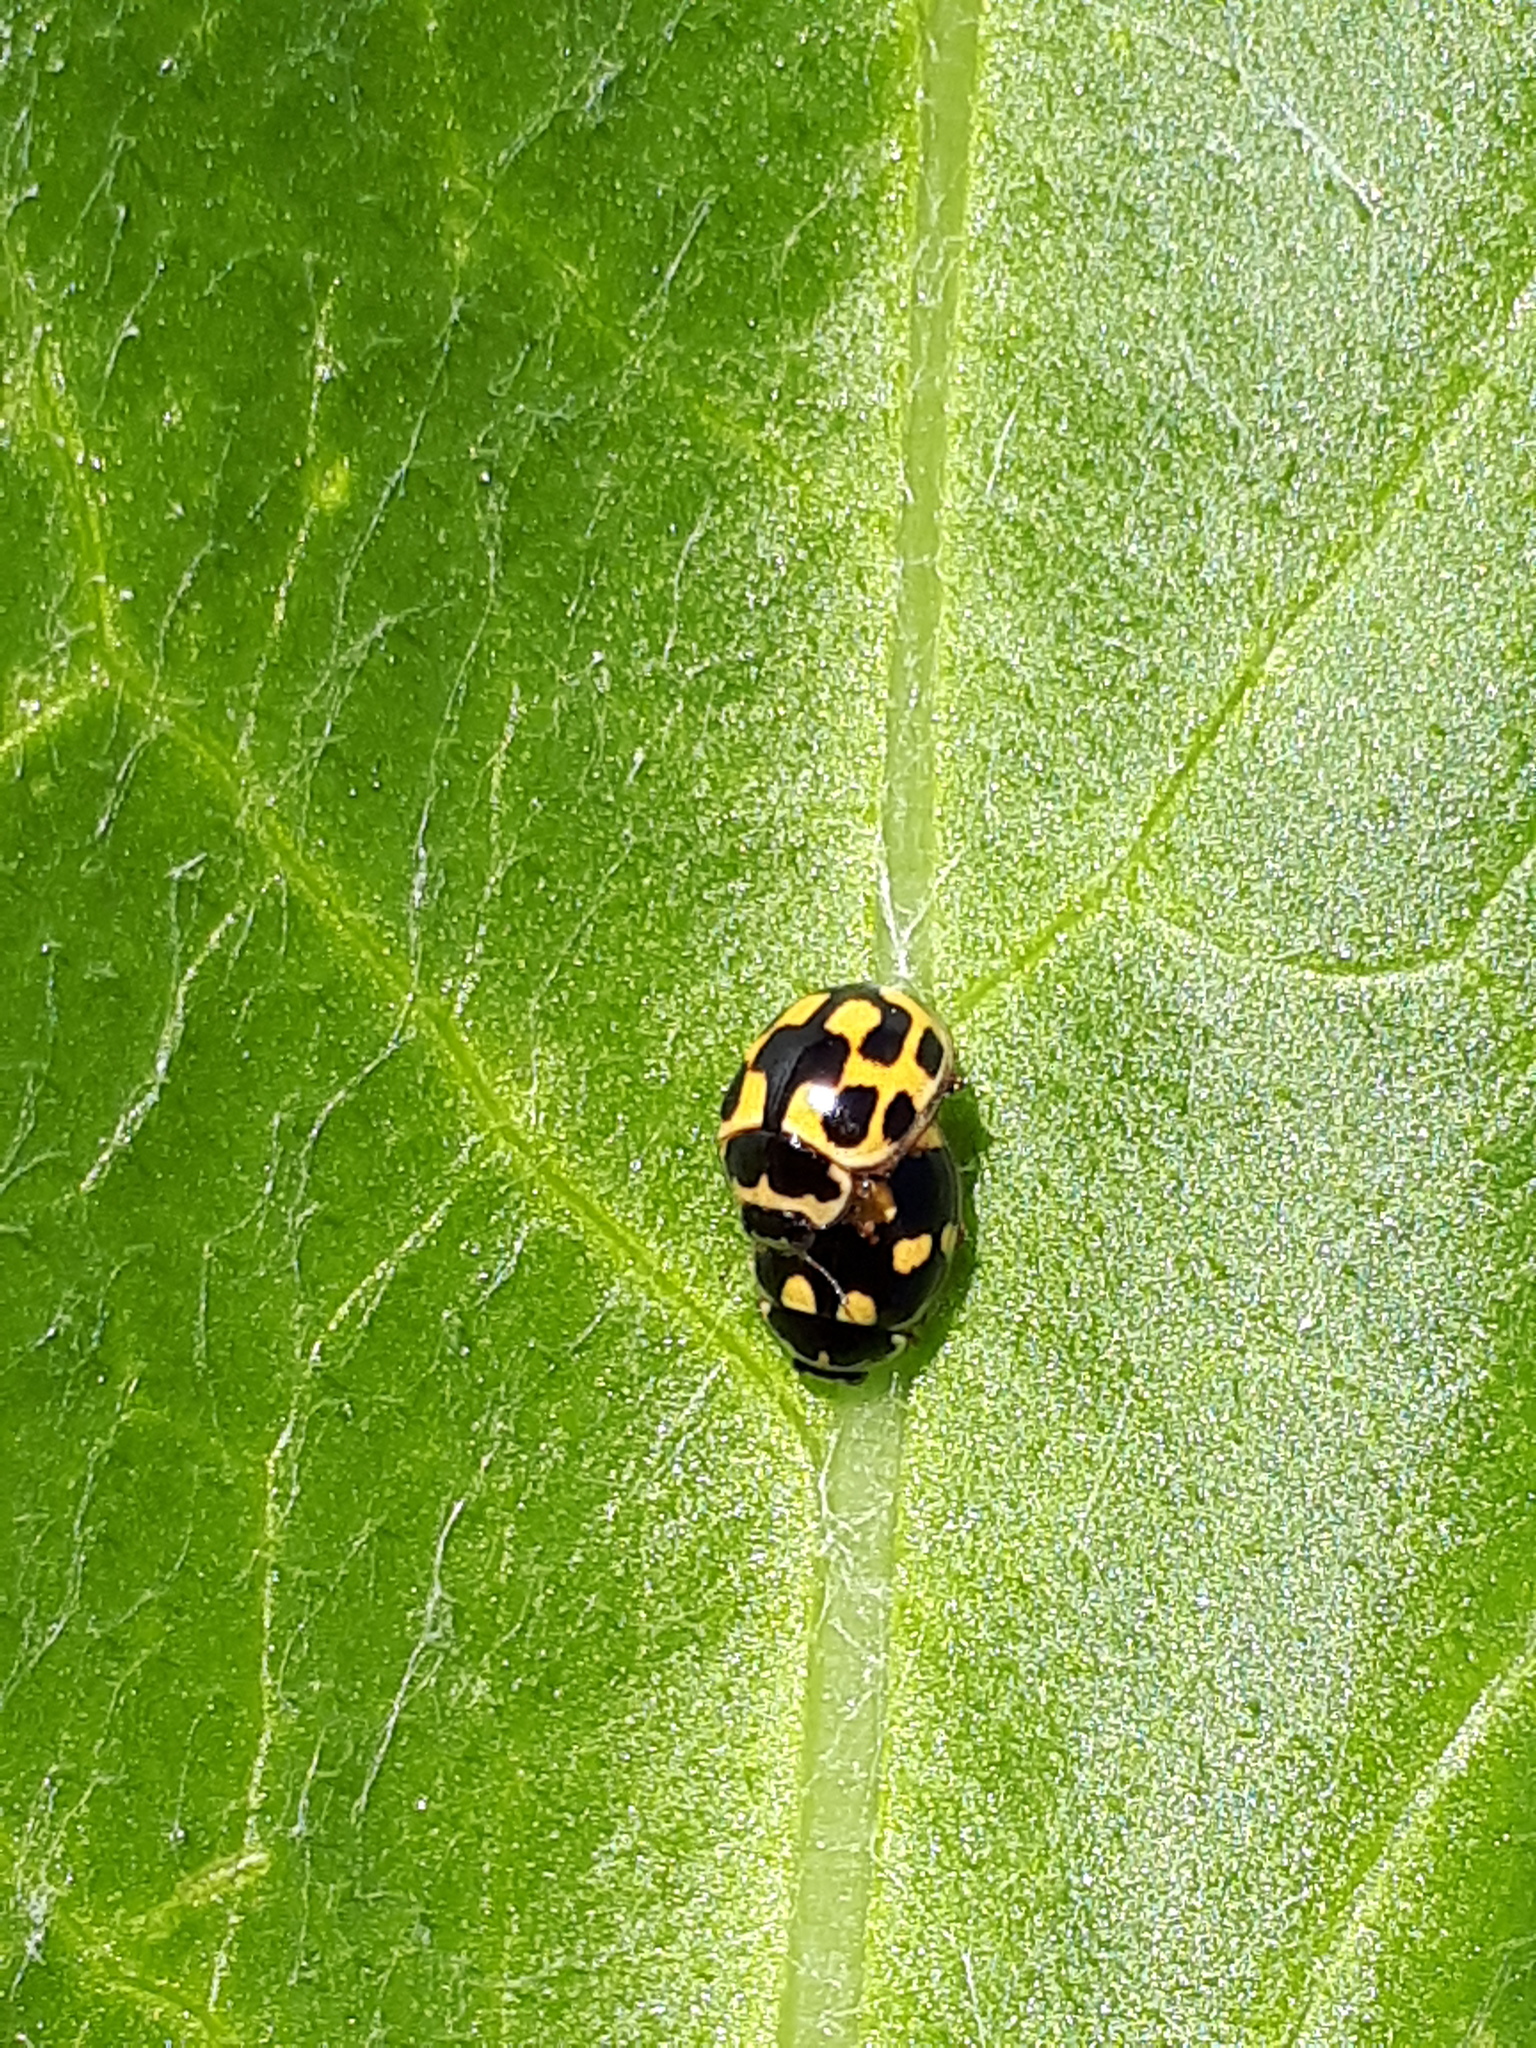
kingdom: Animalia
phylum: Arthropoda
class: Insecta
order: Coleoptera
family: Coccinellidae
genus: Propylaea
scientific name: Propylaea quatuordecimpunctata
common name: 14-spotted ladybird beetle
